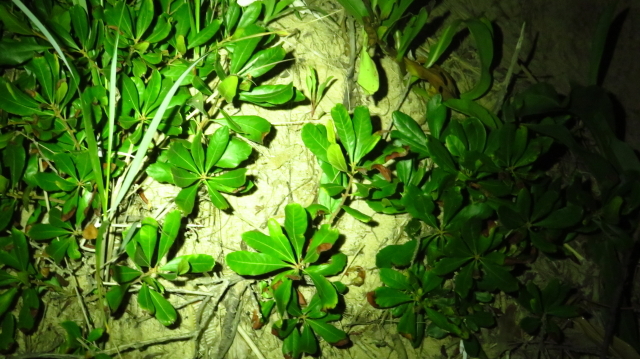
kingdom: Plantae
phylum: Tracheophyta
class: Magnoliopsida
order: Fagales
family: Myricaceae
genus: Morella
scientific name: Morella pensylvanica
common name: Northern bayberry
